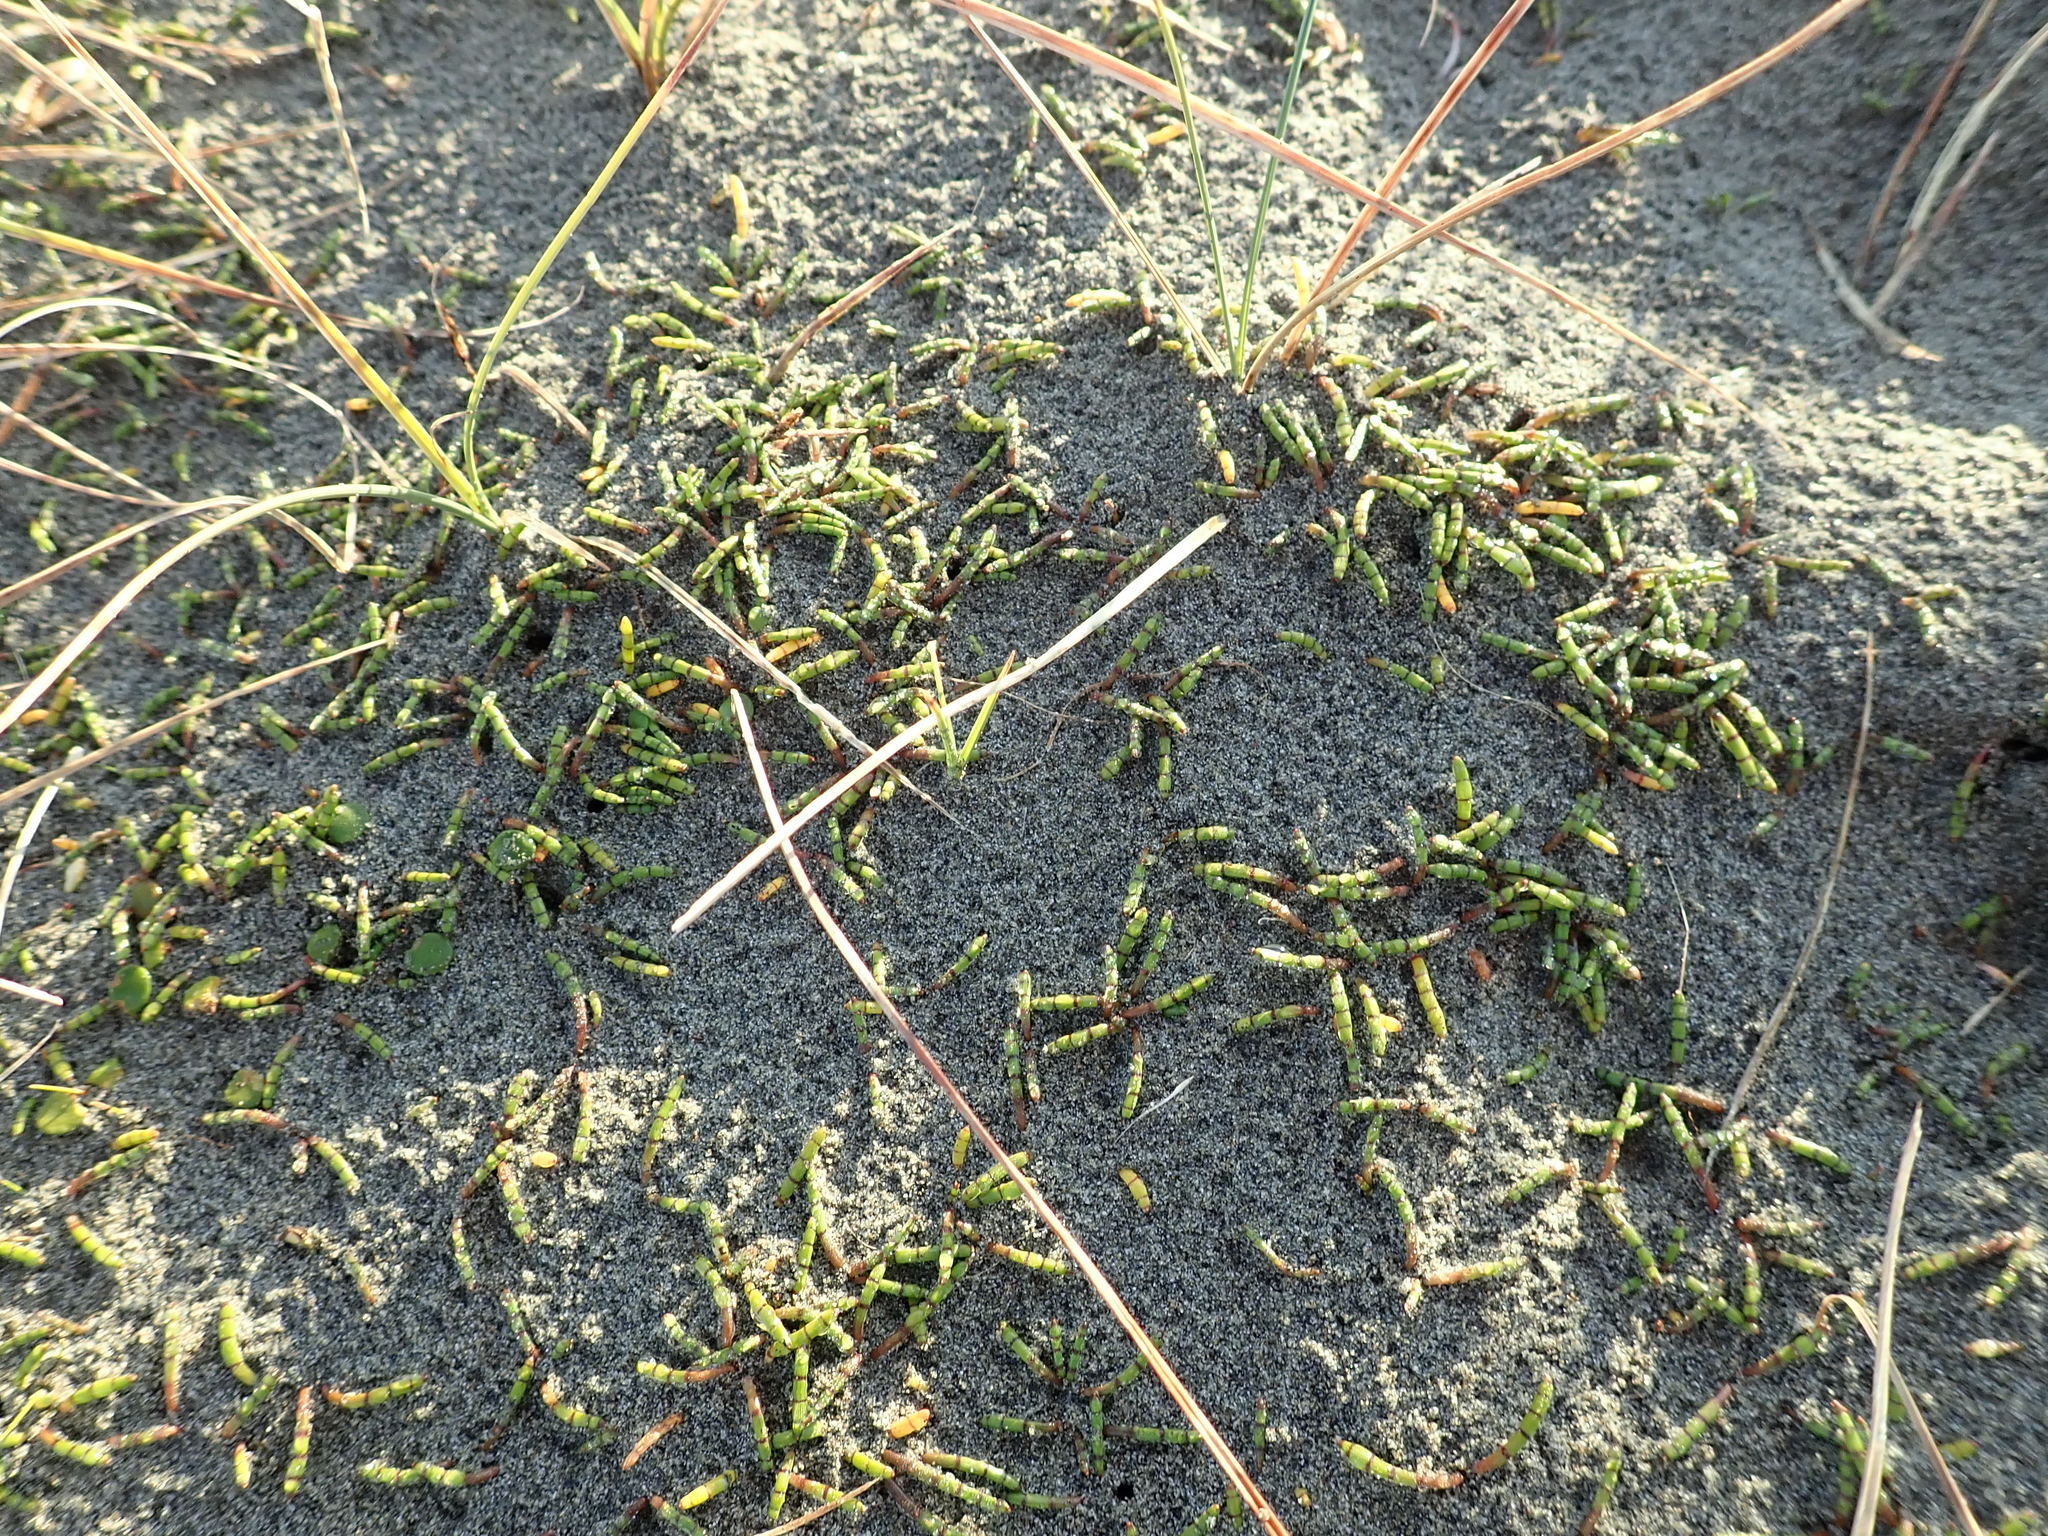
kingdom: Plantae
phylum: Tracheophyta
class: Magnoliopsida
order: Apiales
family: Apiaceae
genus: Lilaeopsis
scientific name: Lilaeopsis novae-zelandiae
